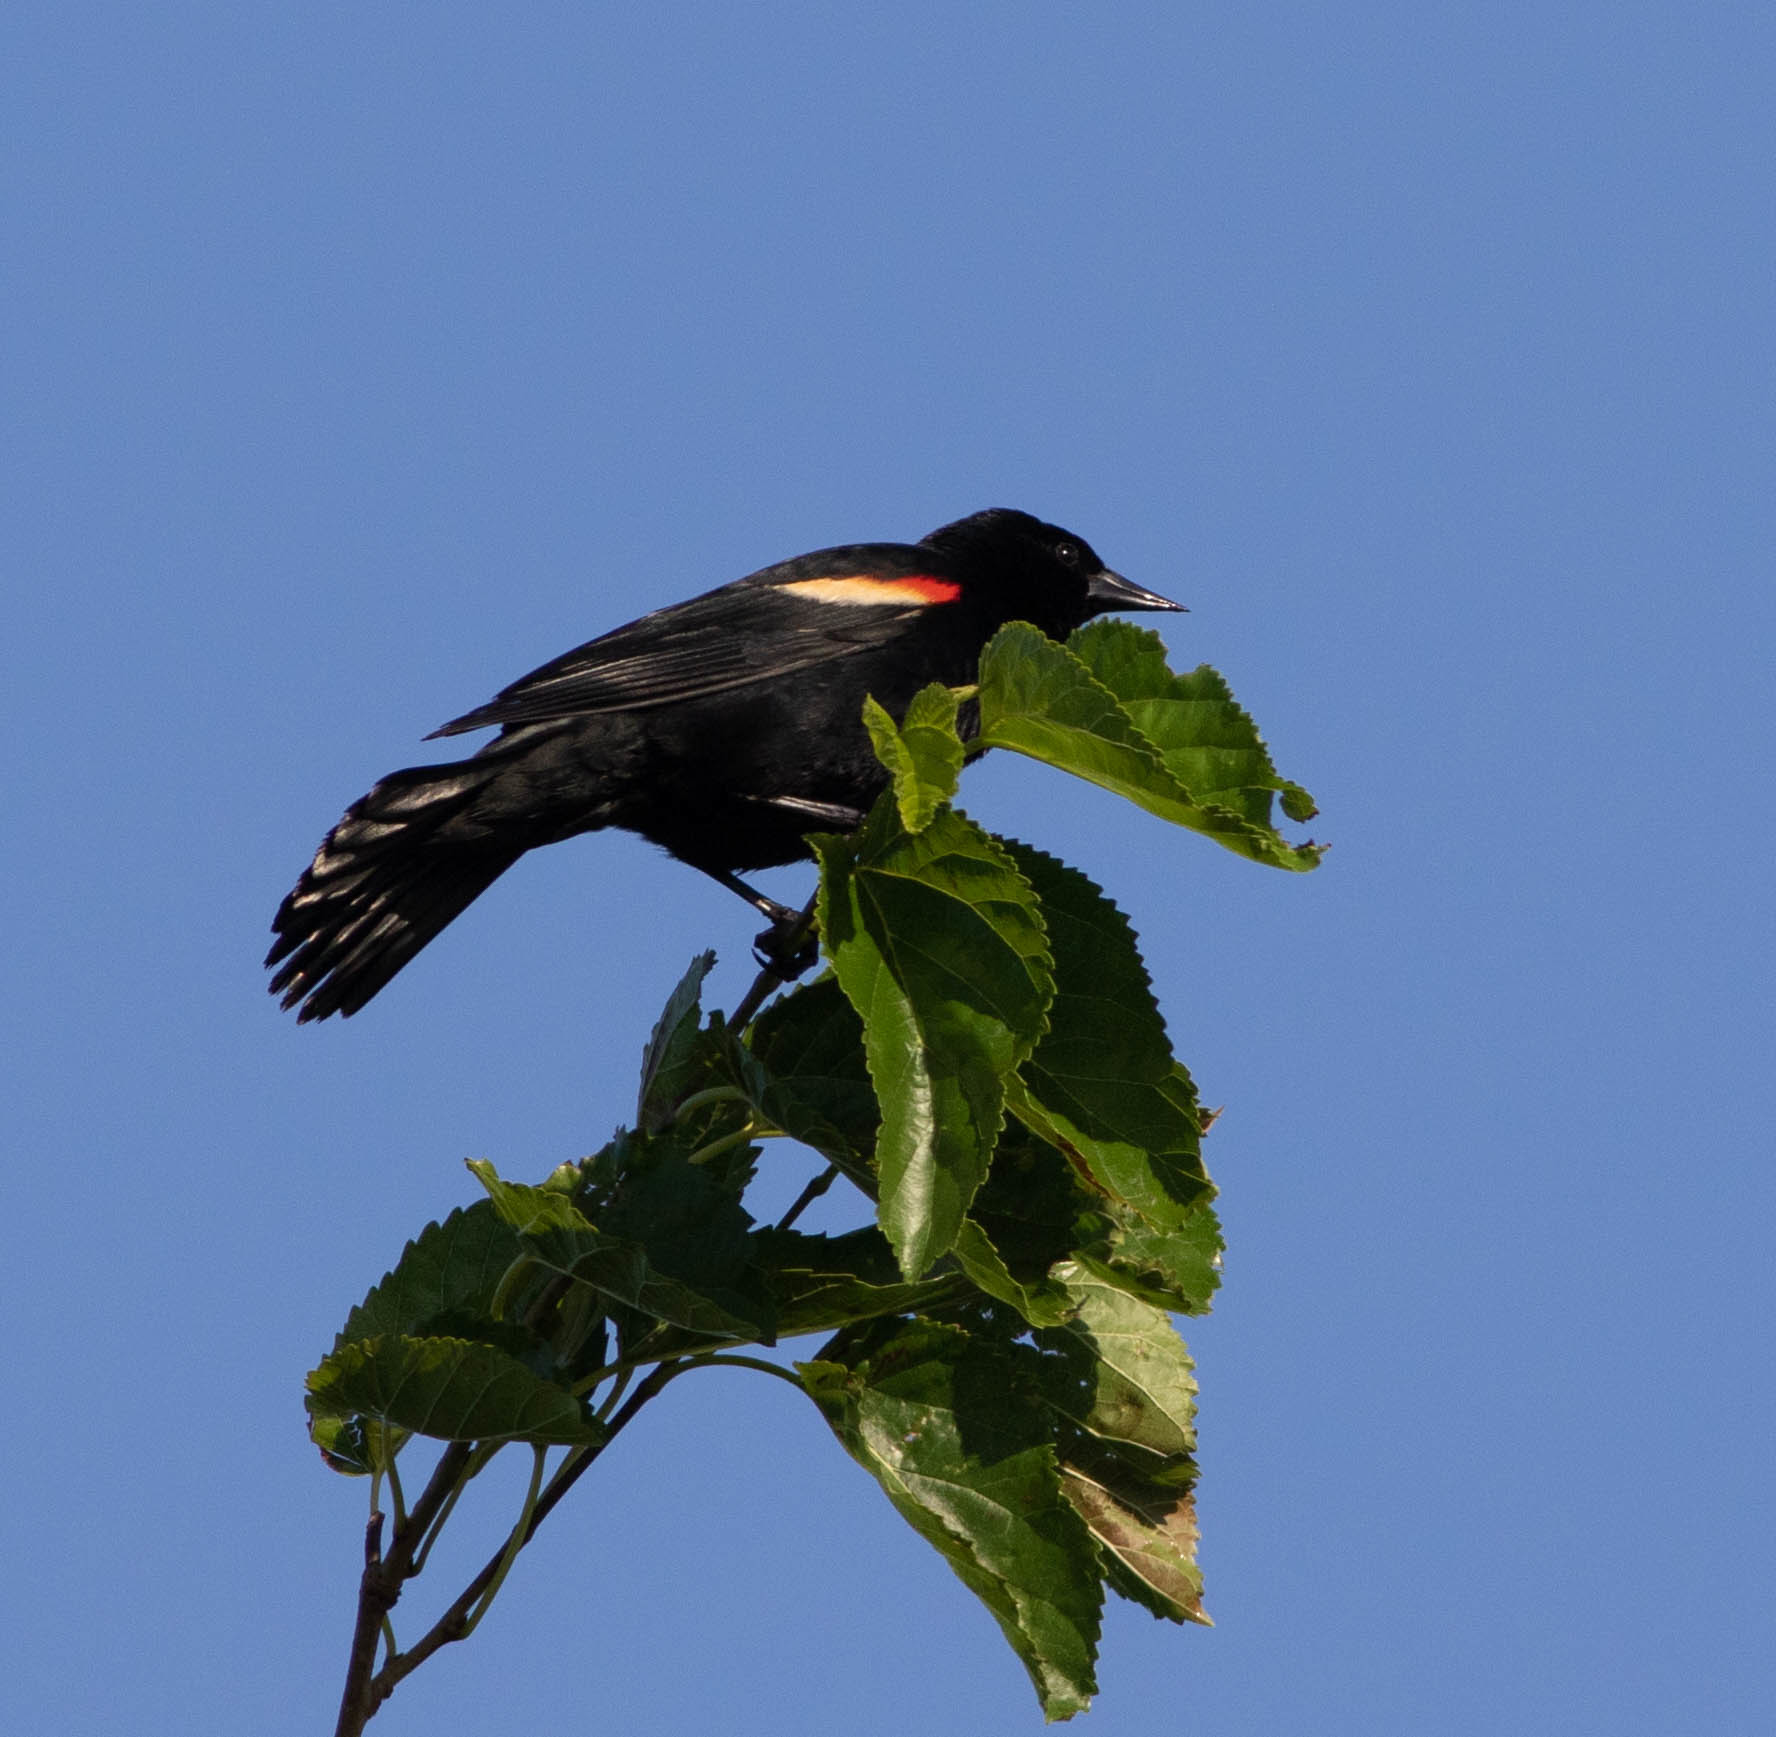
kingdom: Animalia
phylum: Chordata
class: Aves
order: Passeriformes
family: Icteridae
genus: Agelaius
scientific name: Agelaius phoeniceus
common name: Red-winged blackbird
